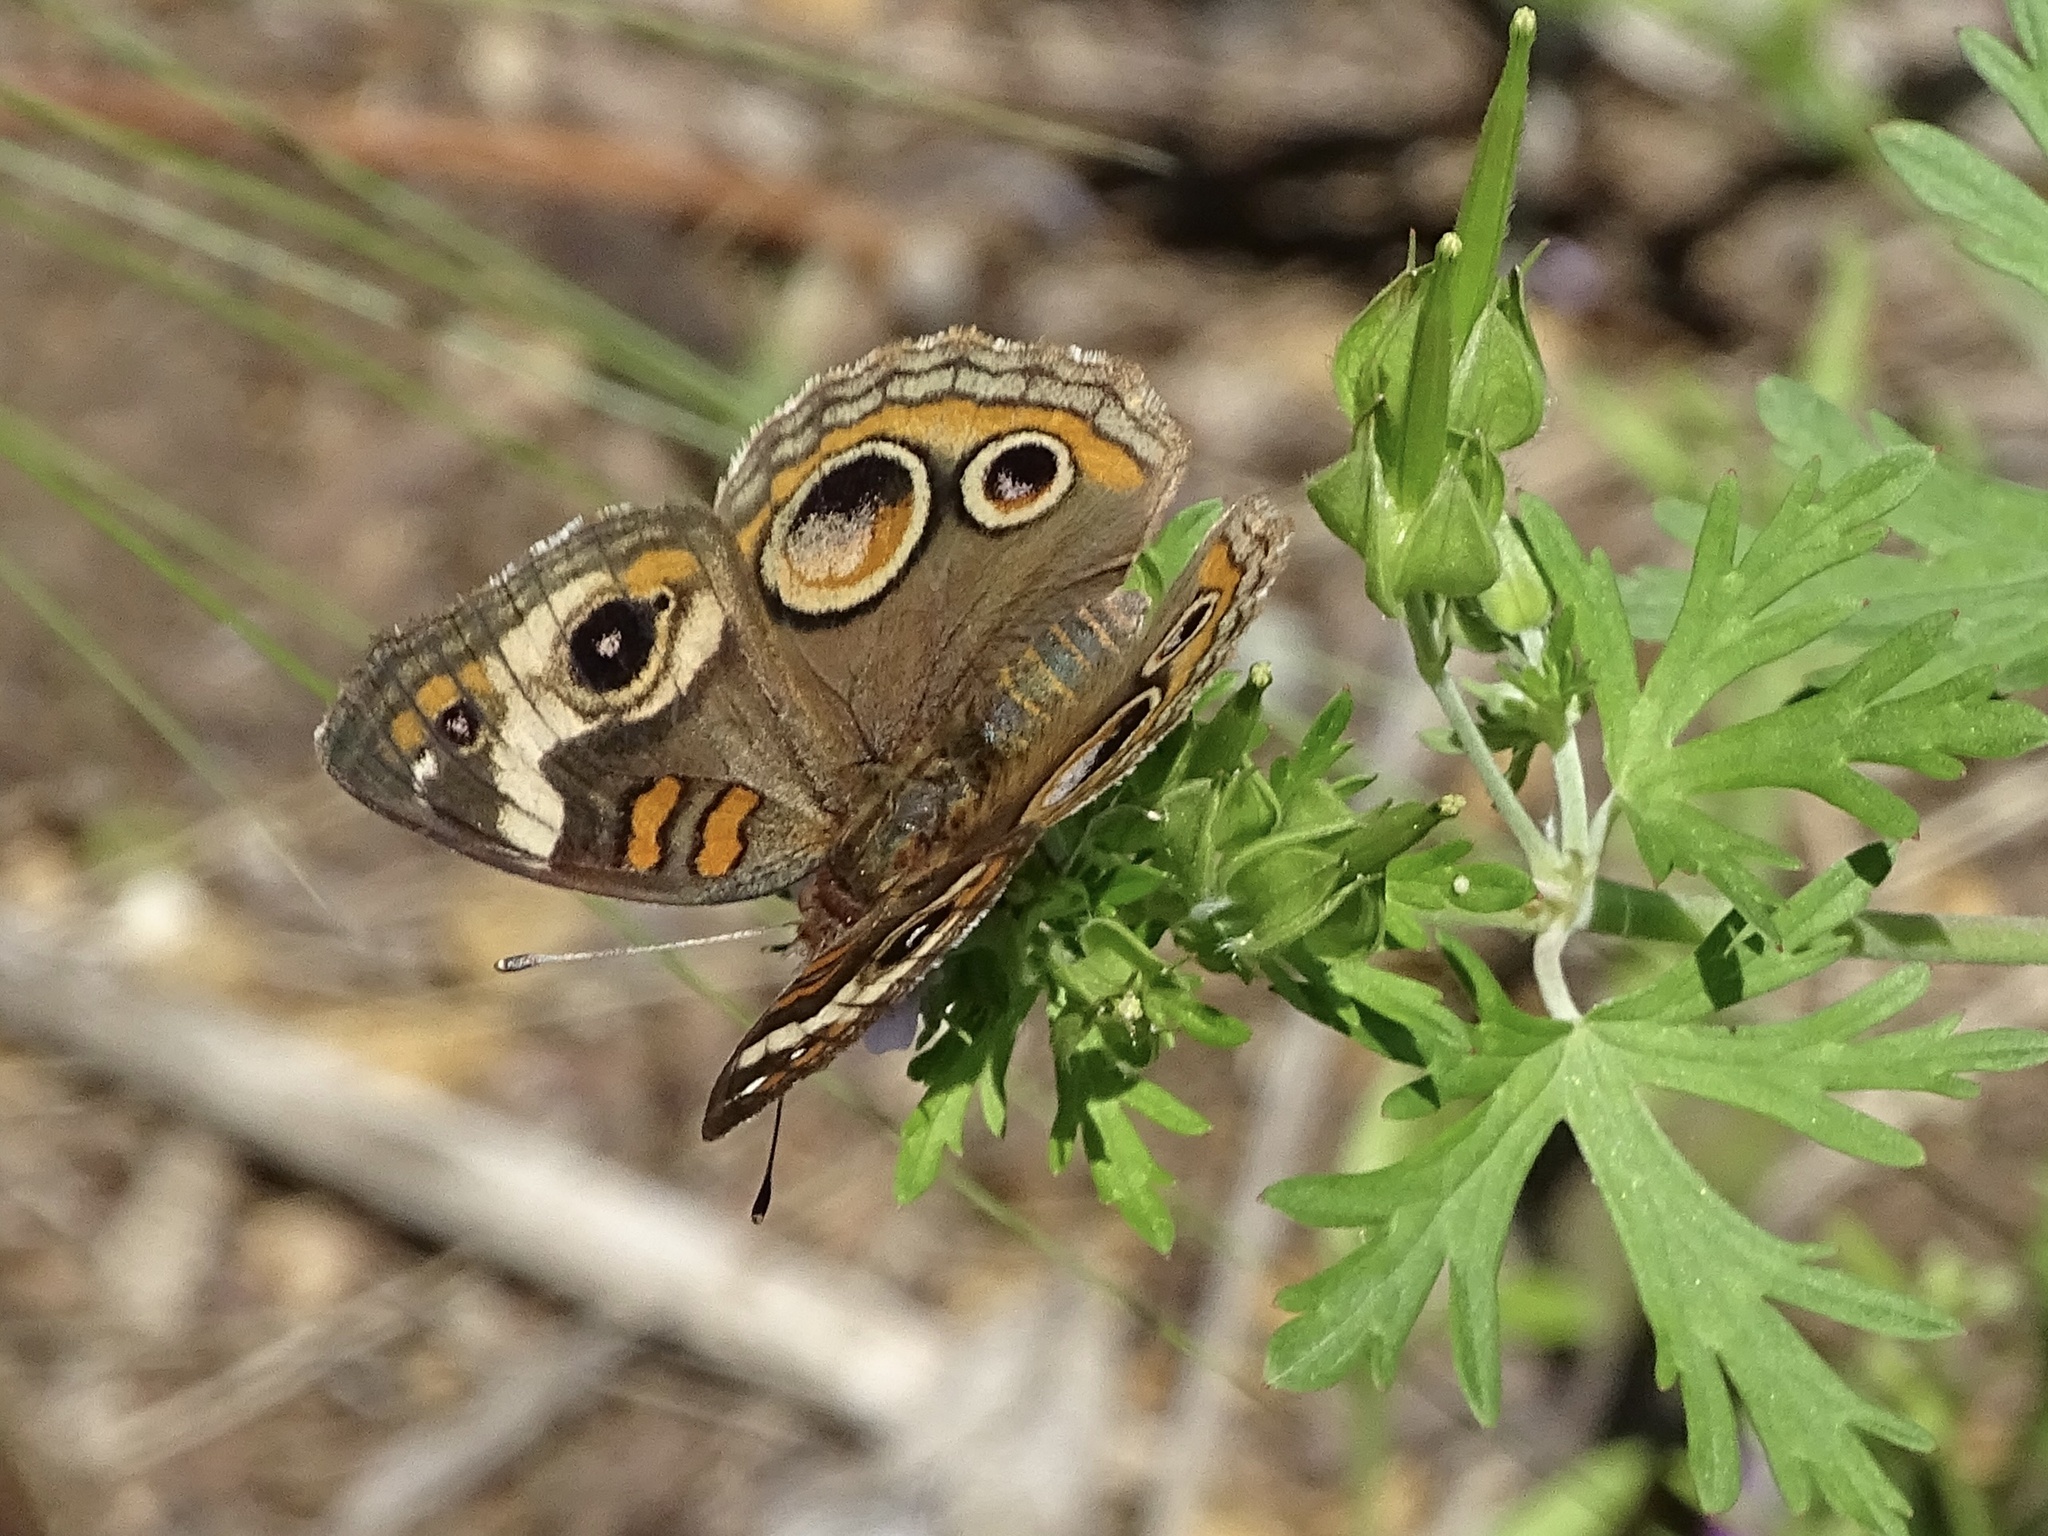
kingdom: Animalia
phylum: Arthropoda
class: Insecta
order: Lepidoptera
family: Nymphalidae
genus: Junonia
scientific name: Junonia coenia
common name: Common buckeye
